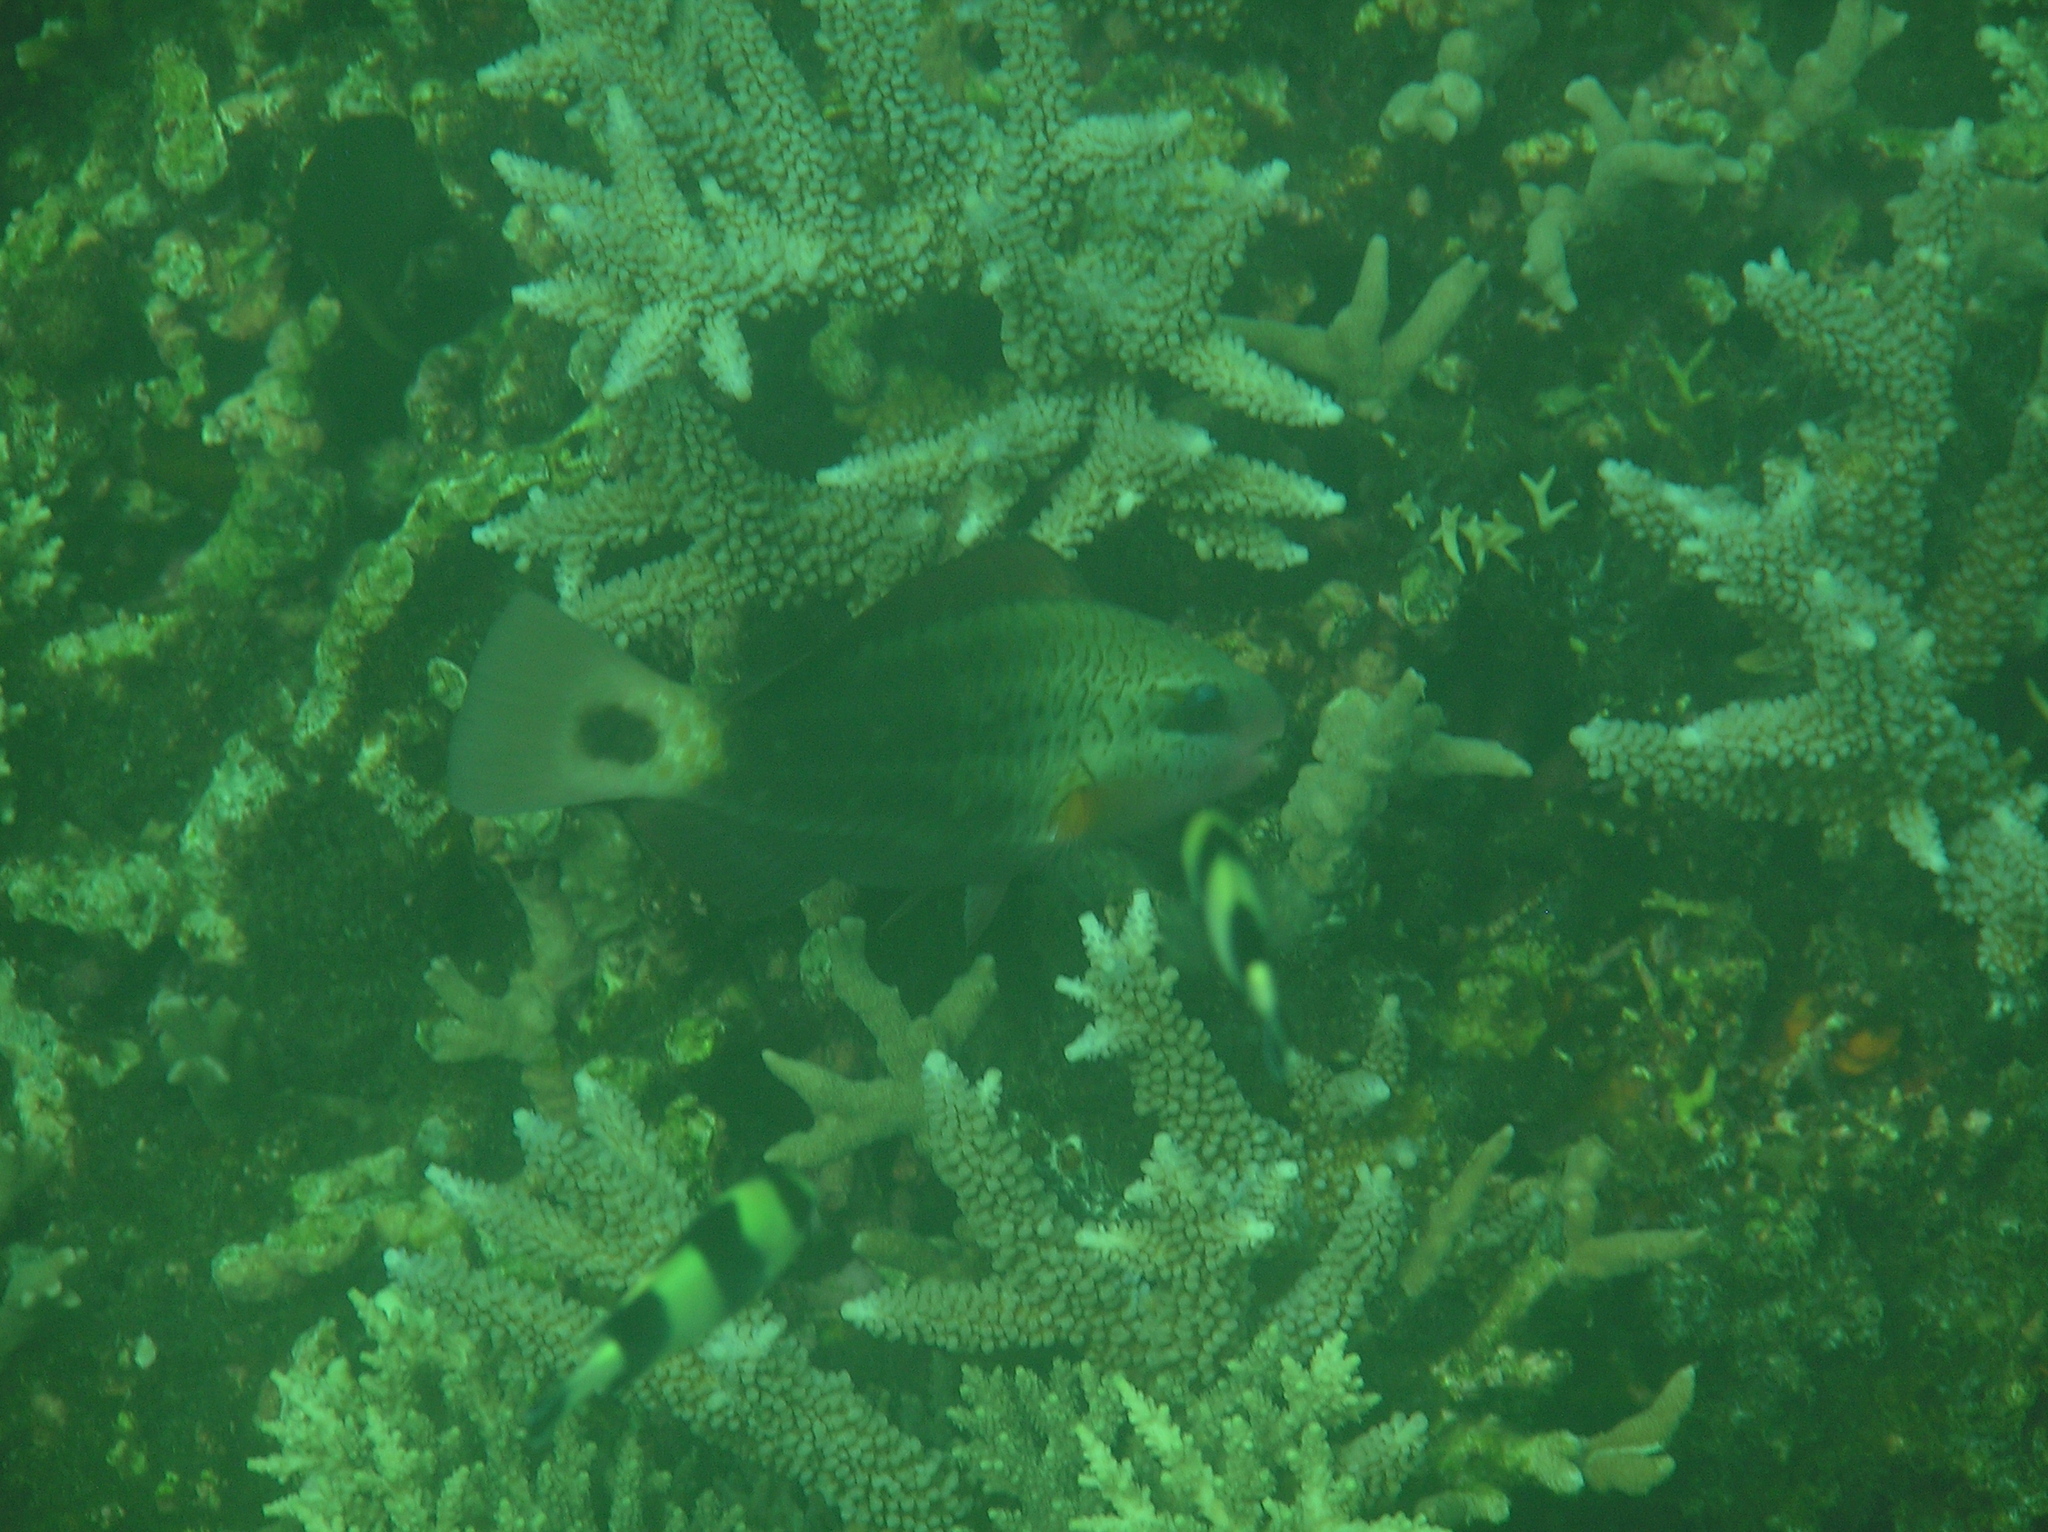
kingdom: Animalia
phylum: Chordata
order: Perciformes
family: Scaridae
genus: Chlorurus
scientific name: Chlorurus spilurus
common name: Bullethead parrotfish
